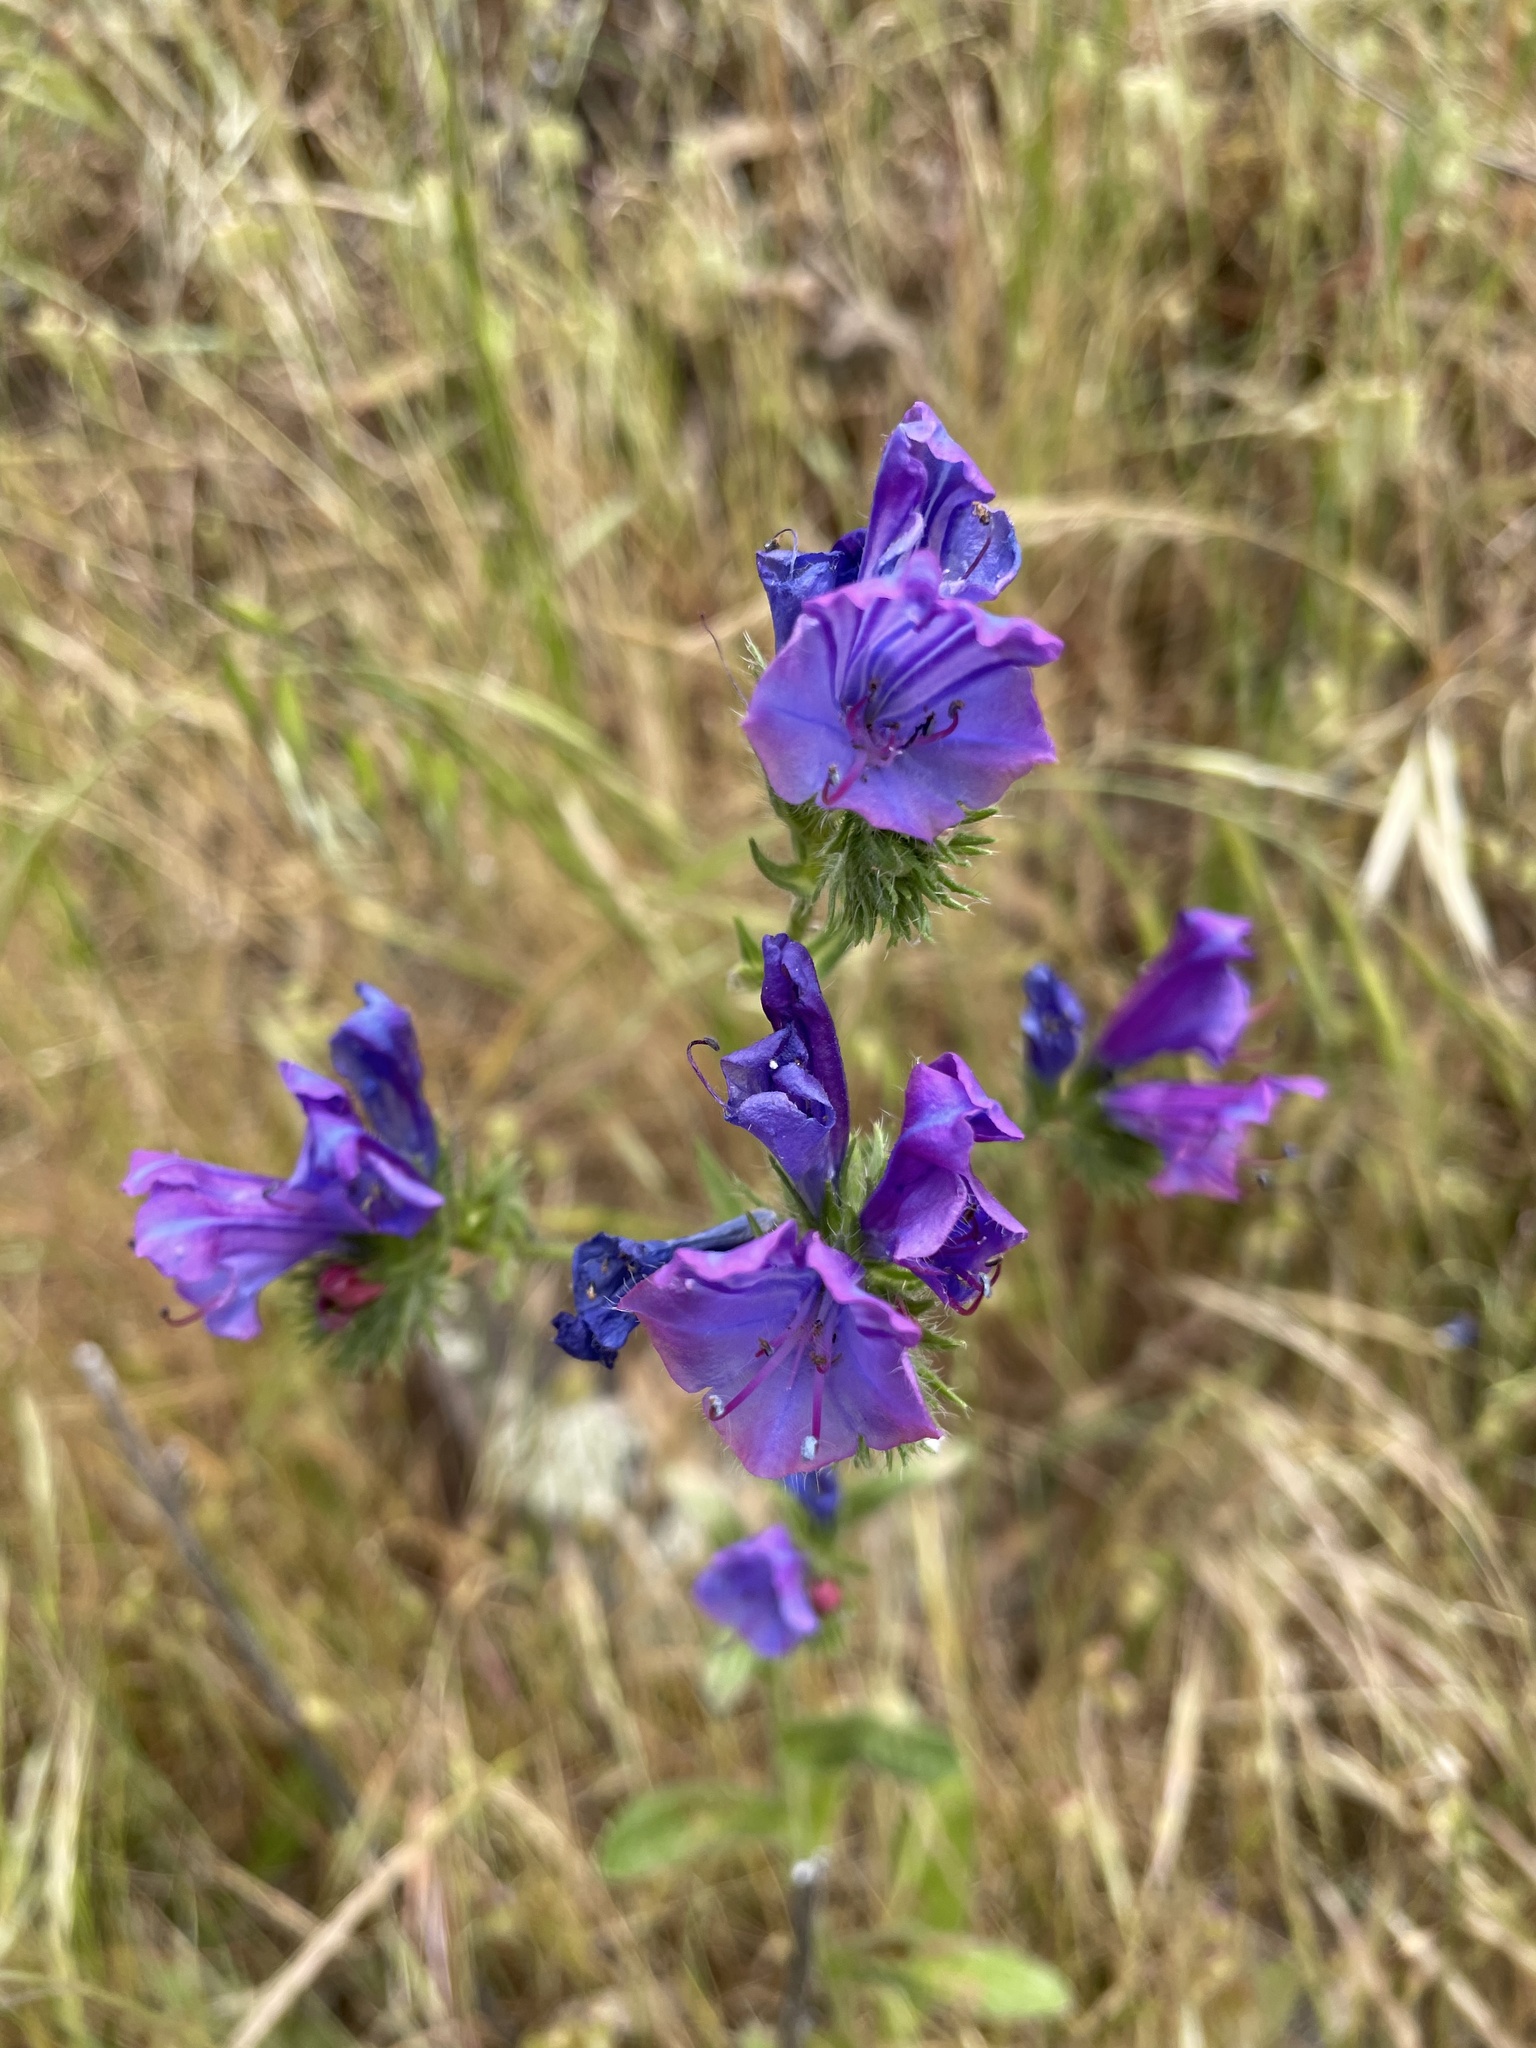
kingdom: Plantae
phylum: Tracheophyta
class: Magnoliopsida
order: Boraginales
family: Boraginaceae
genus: Echium
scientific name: Echium plantagineum
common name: Purple viper's-bugloss
